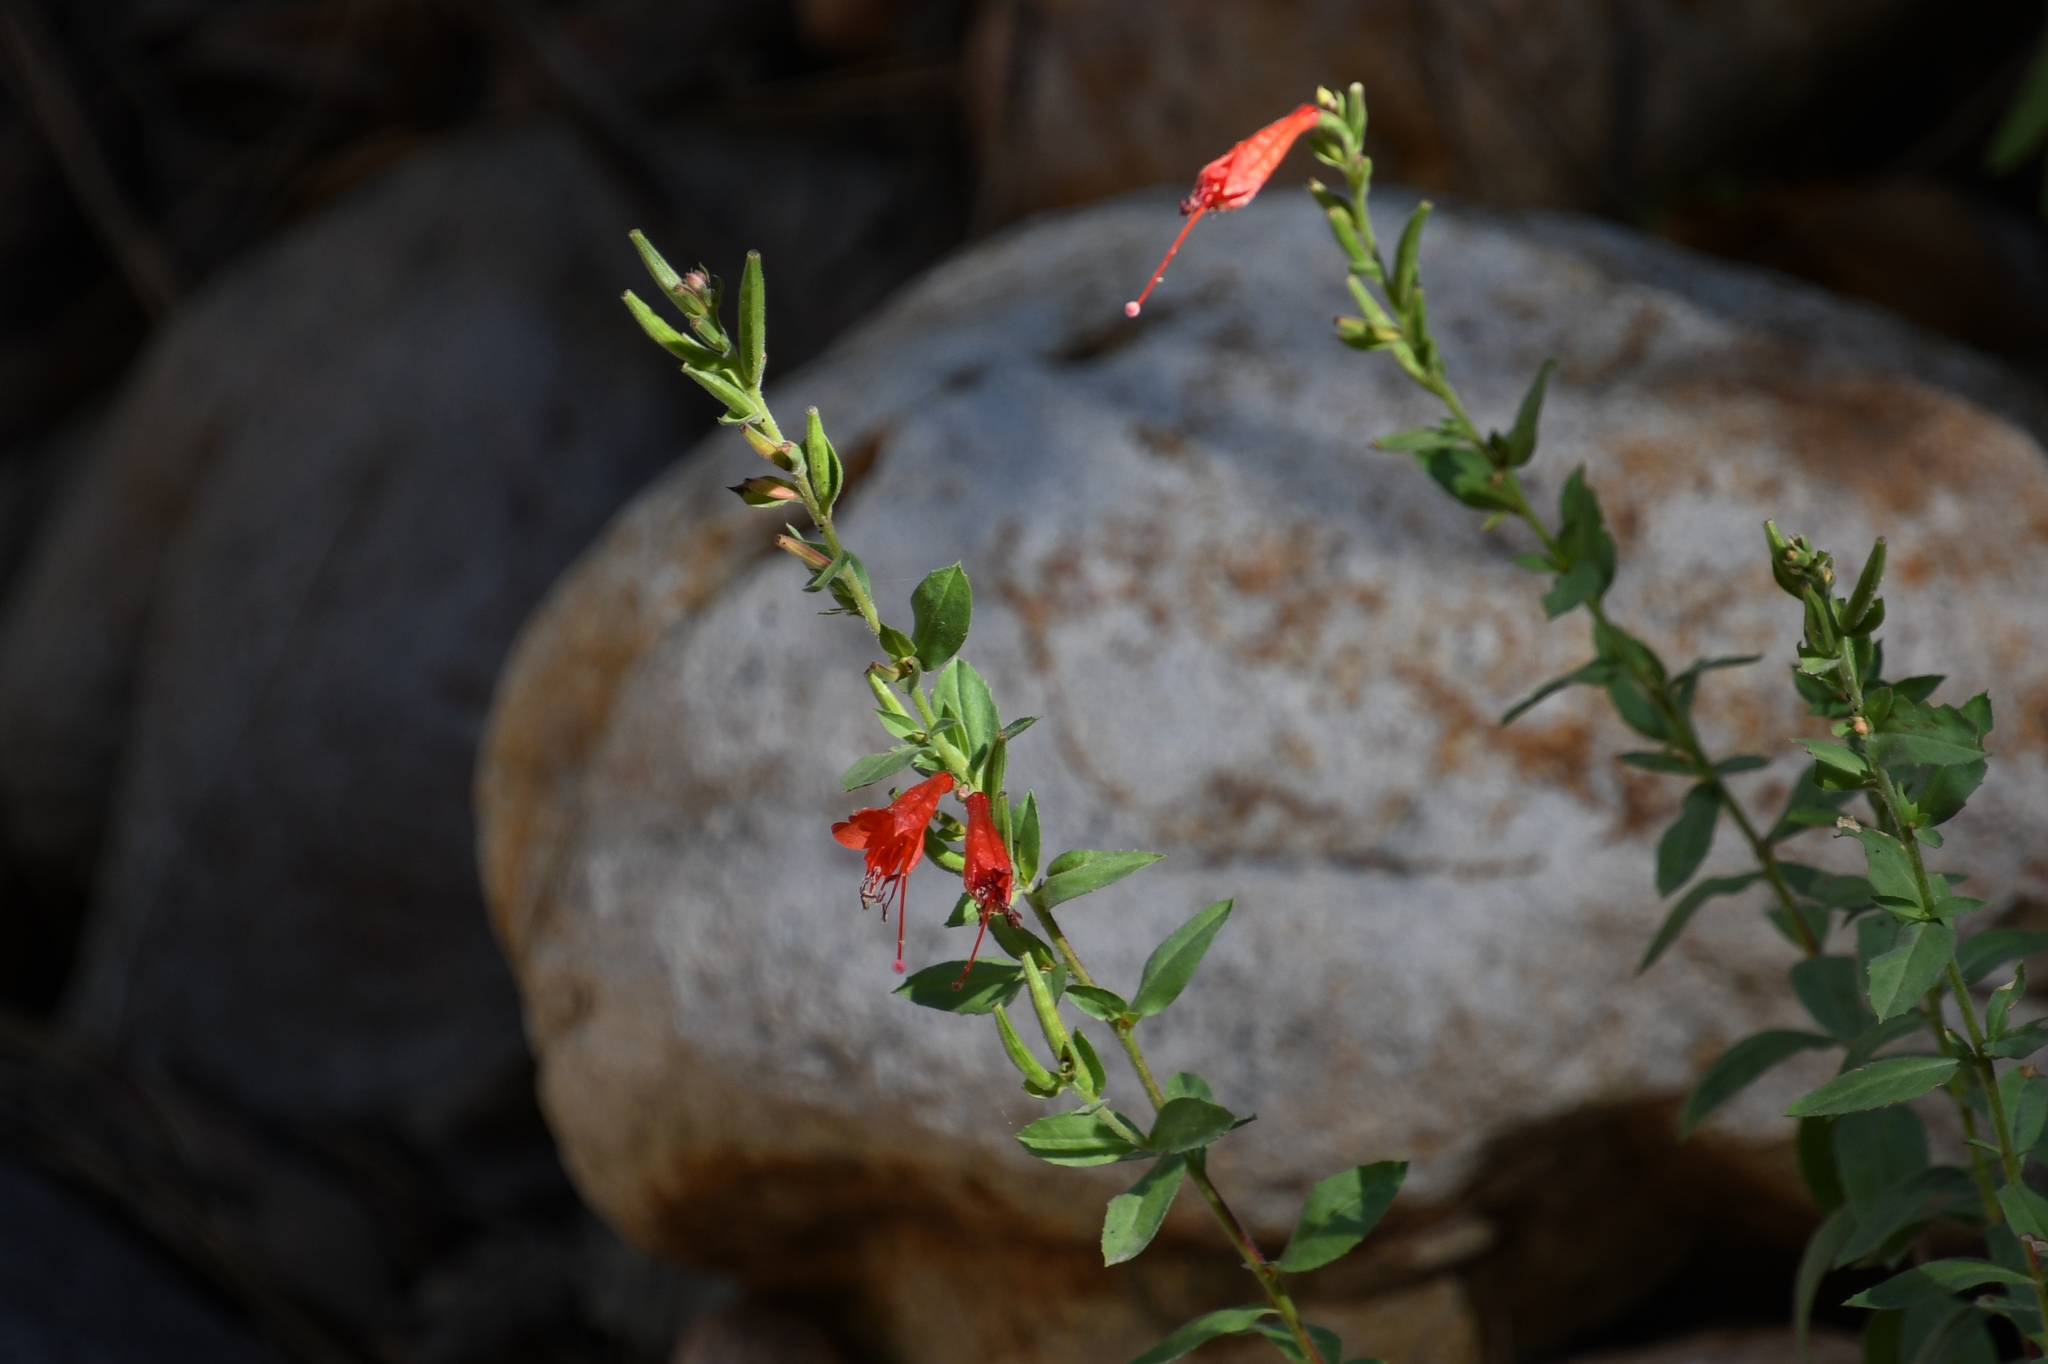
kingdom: Plantae
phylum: Tracheophyta
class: Magnoliopsida
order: Myrtales
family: Onagraceae
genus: Epilobium
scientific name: Epilobium canum
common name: California-fuchsia
